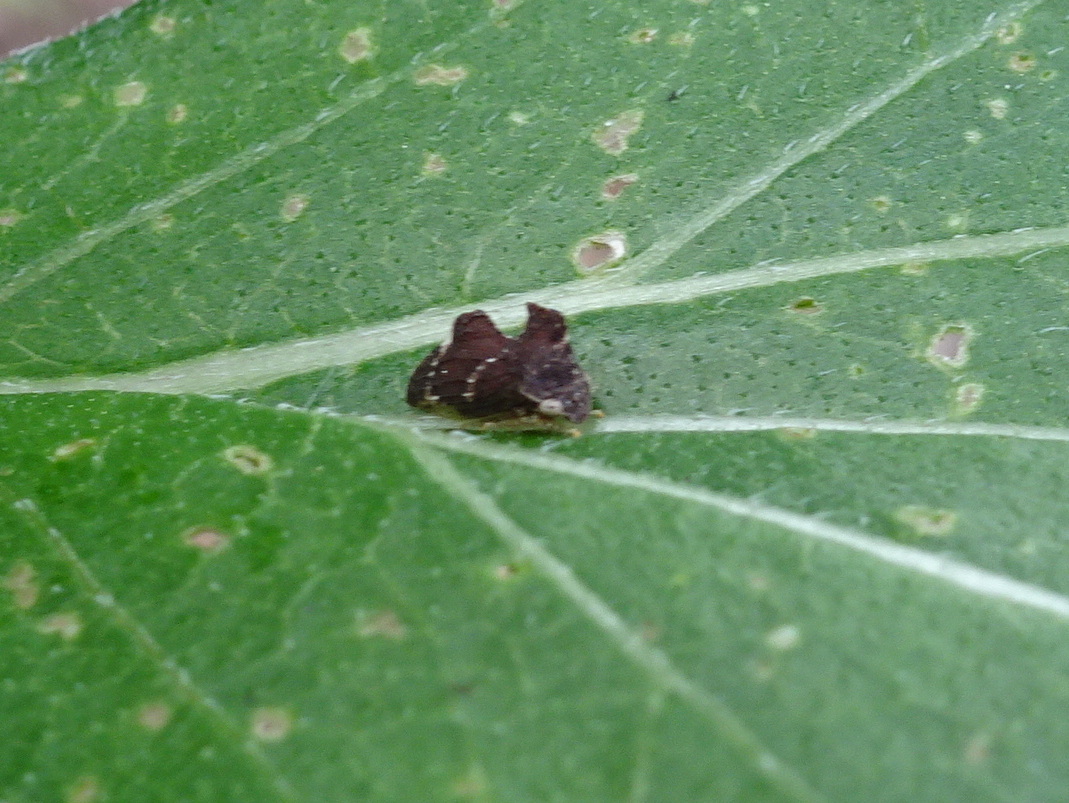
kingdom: Animalia
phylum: Arthropoda
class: Insecta
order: Hemiptera
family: Membracidae
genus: Entylia
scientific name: Entylia carinata
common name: Keeled treehopper
